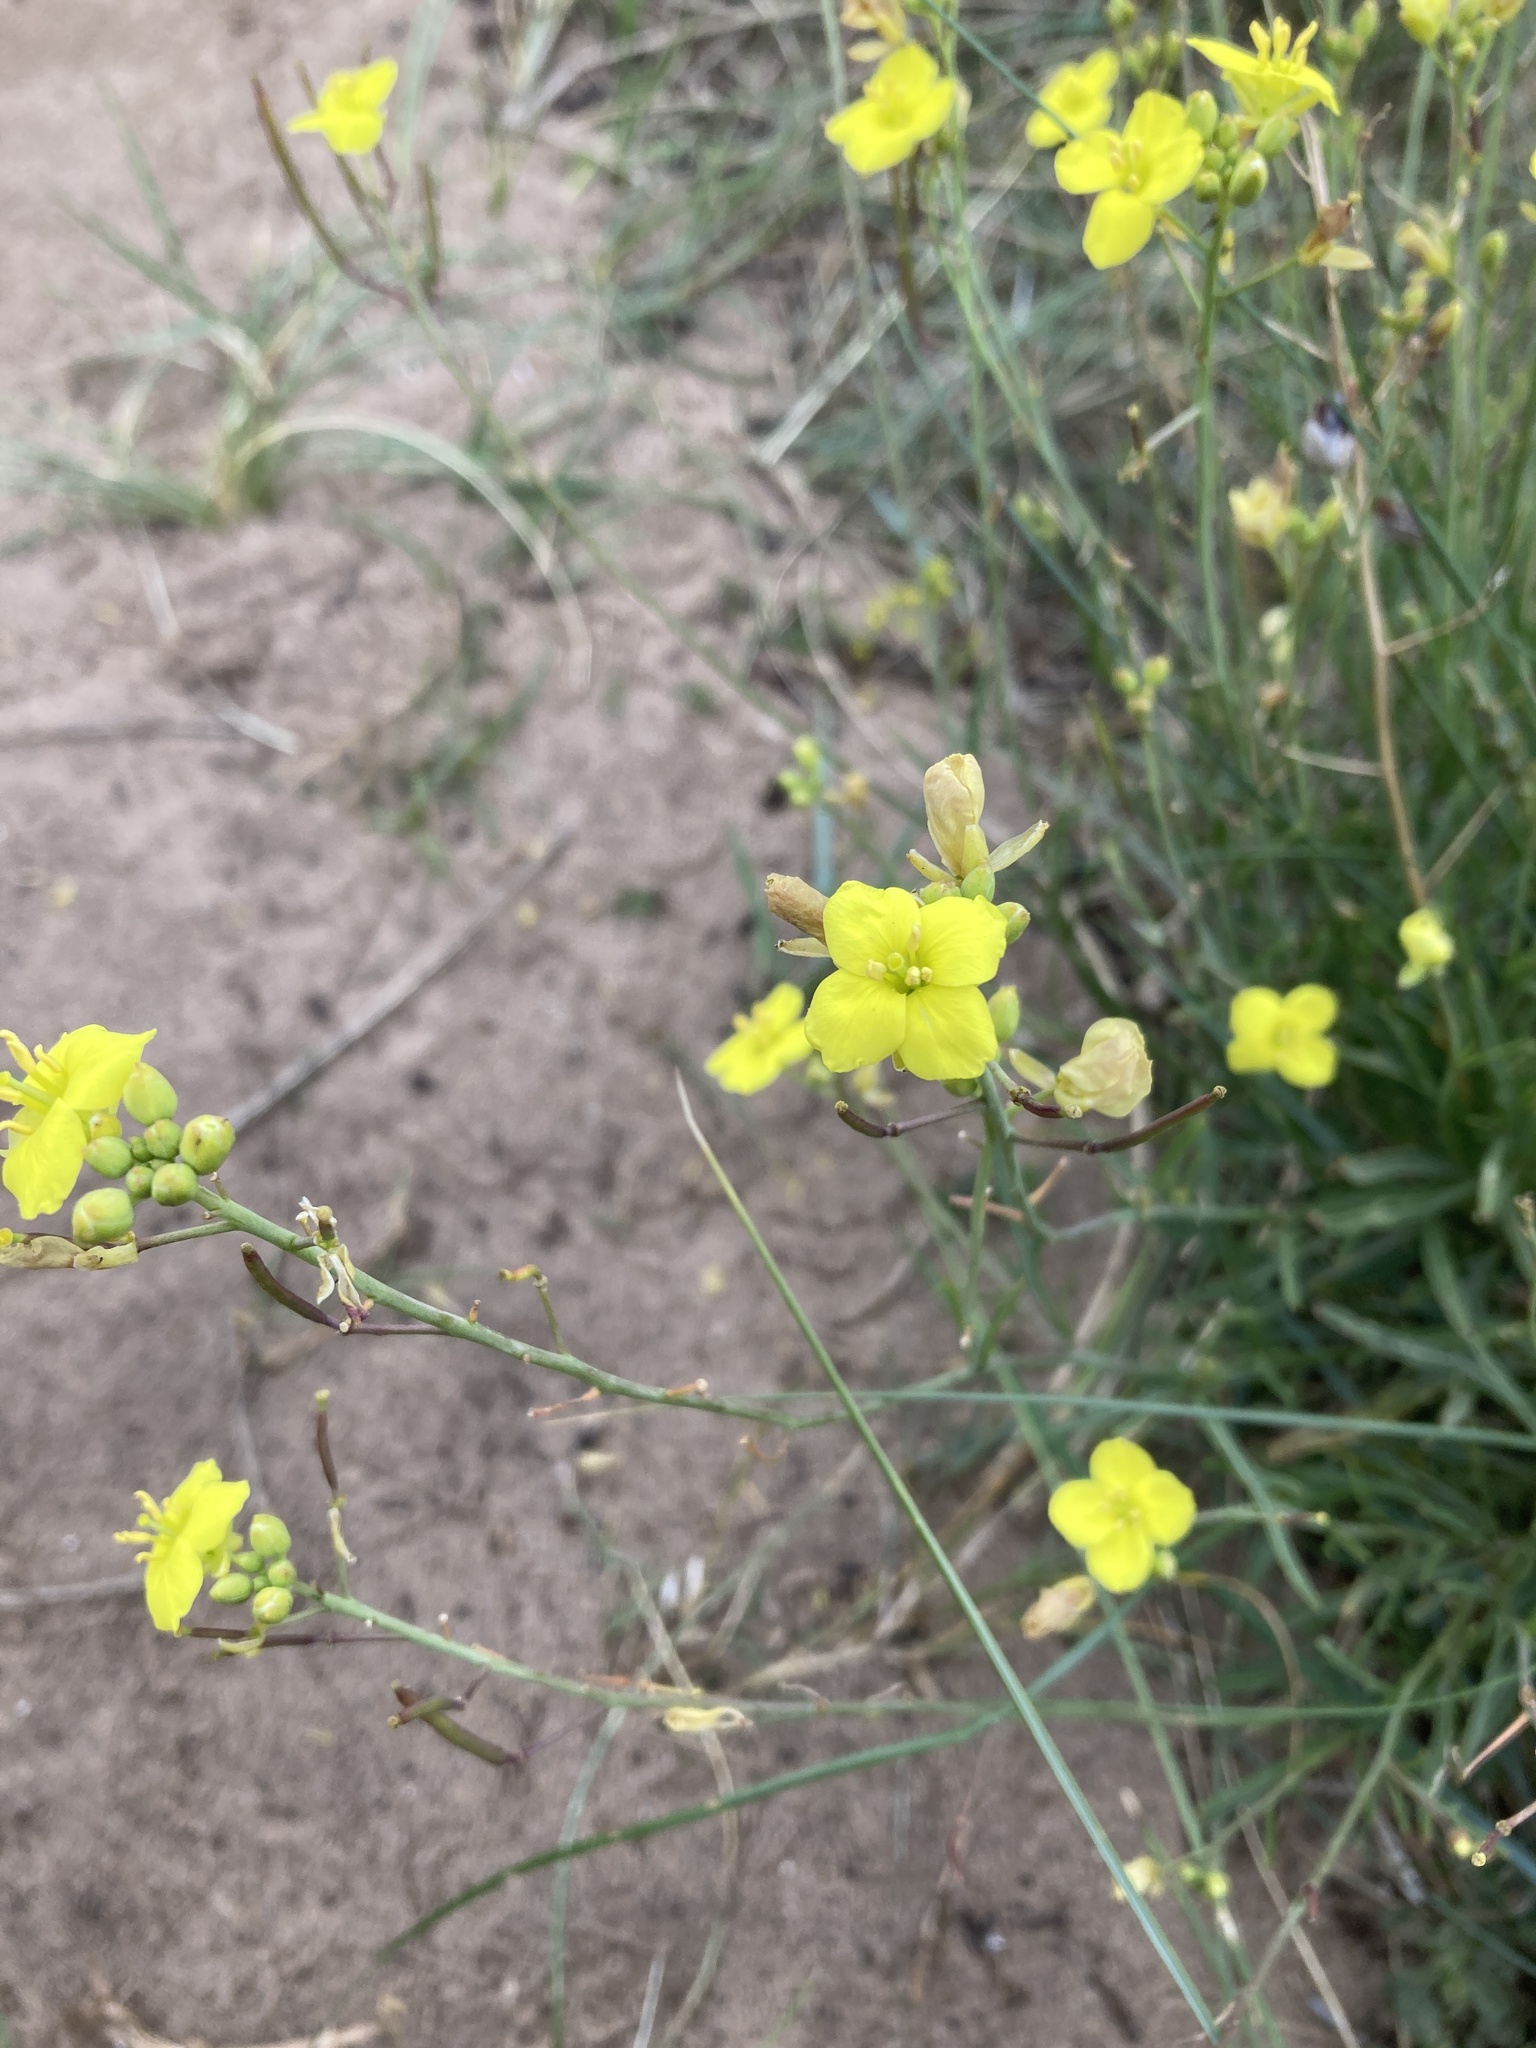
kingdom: Plantae
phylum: Tracheophyta
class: Magnoliopsida
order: Brassicales
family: Brassicaceae
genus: Diplotaxis
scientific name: Diplotaxis tenuifolia
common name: Perennial wall-rocket
